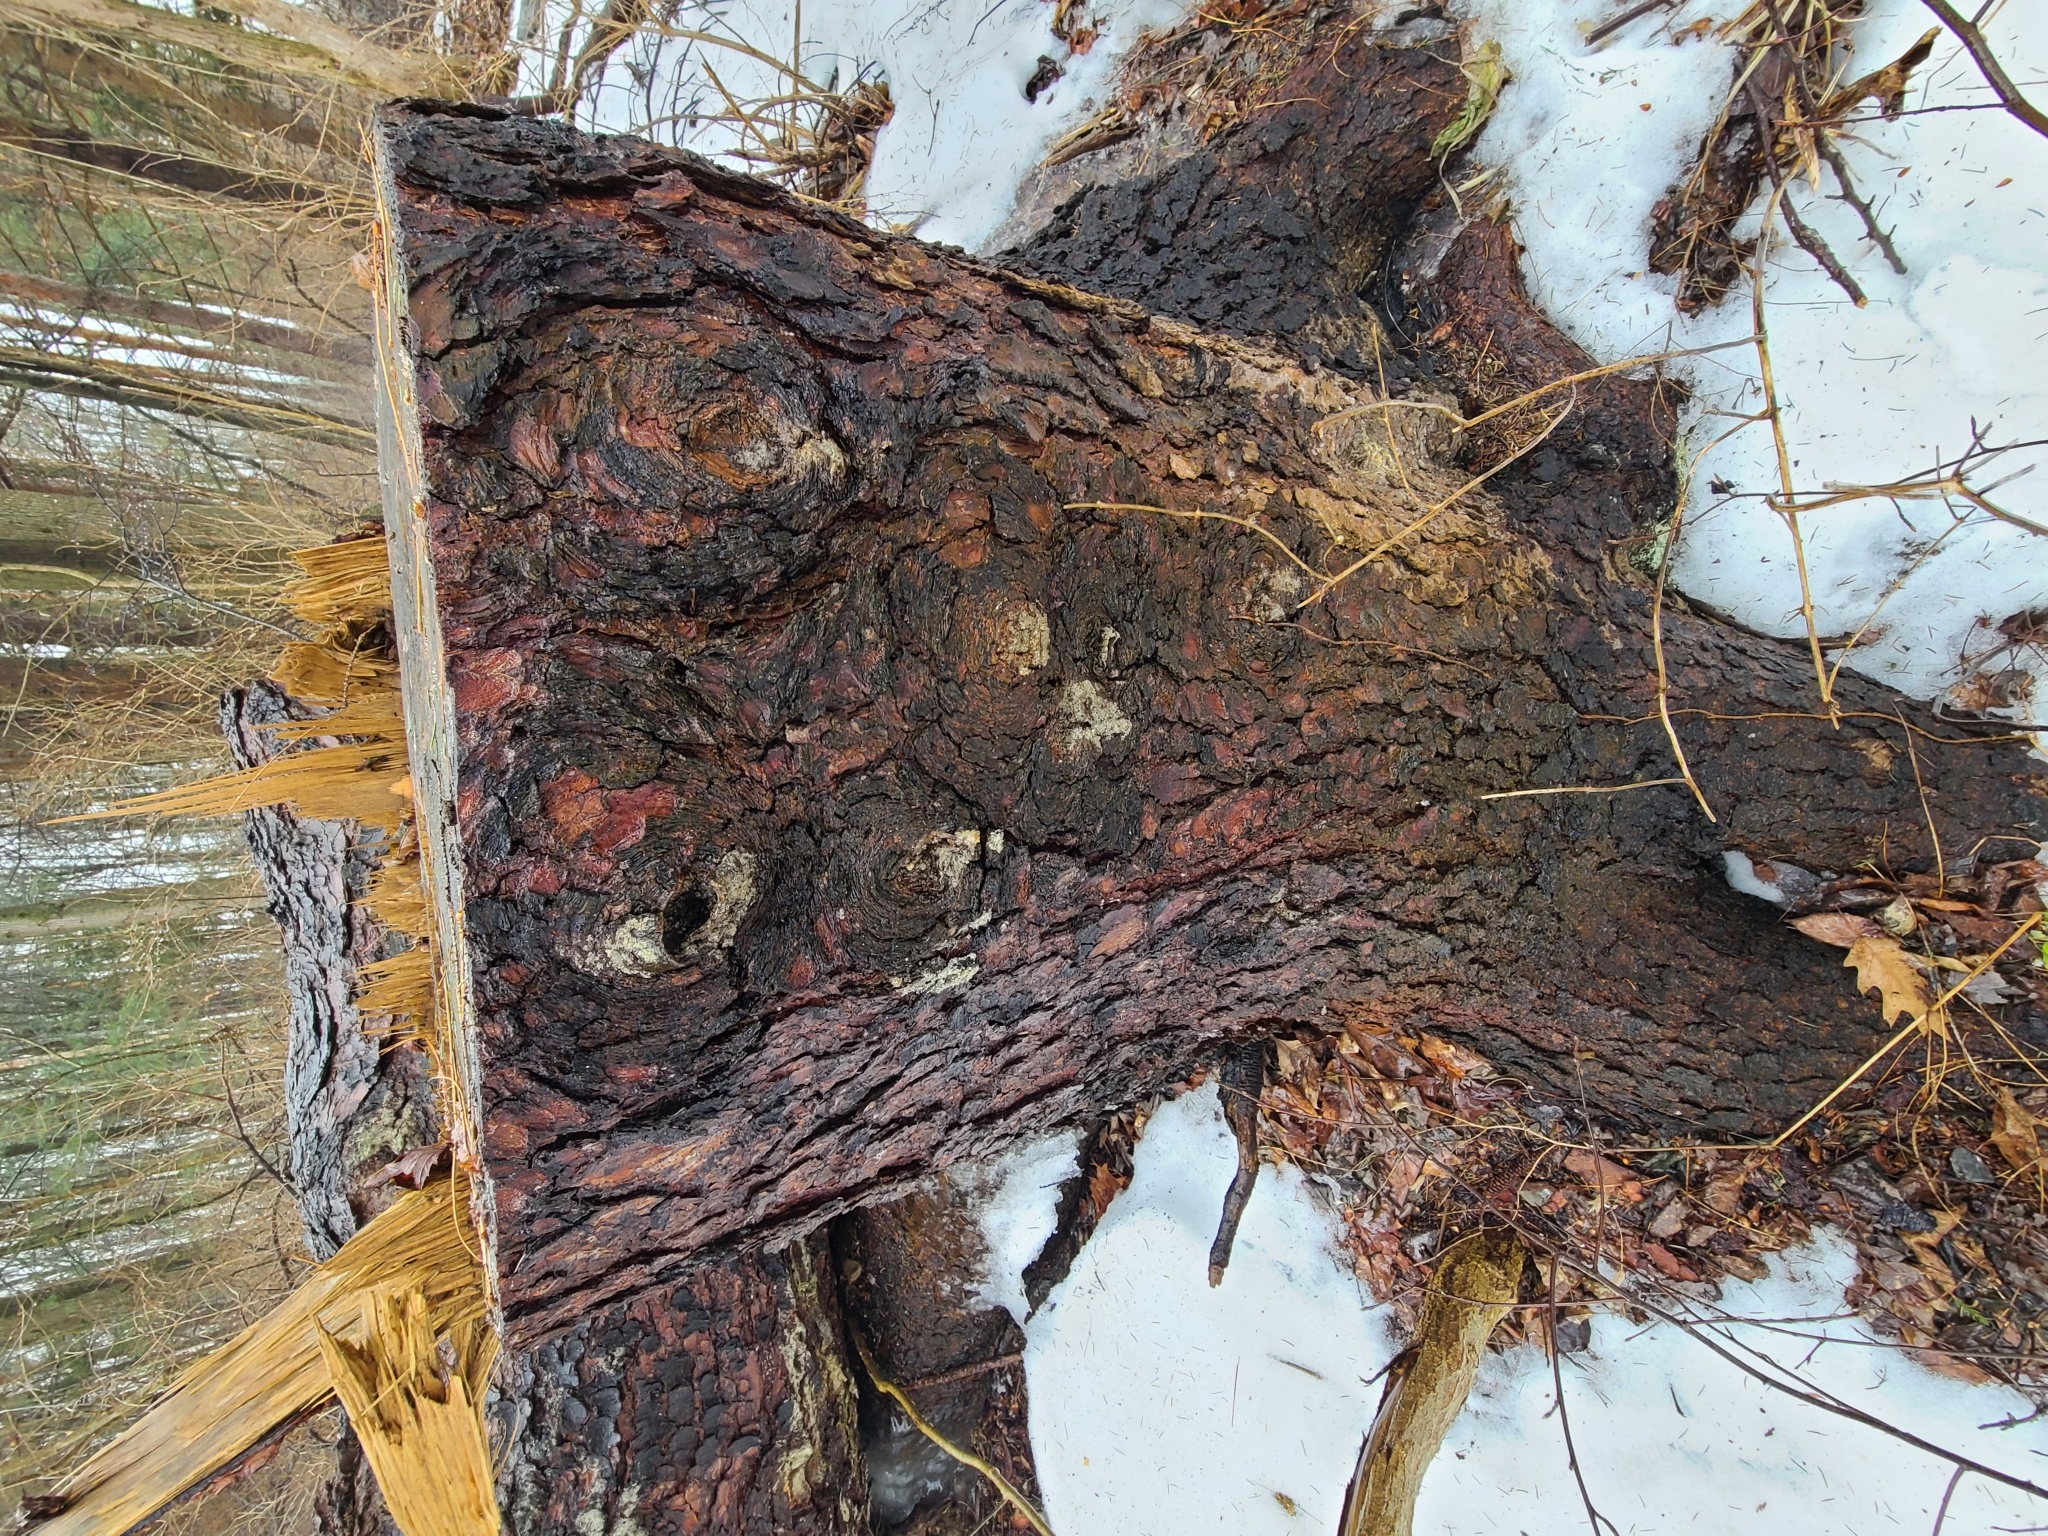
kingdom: Fungi
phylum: Ascomycota
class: Leotiomycetes
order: Helotiales
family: Gelatinodiscaceae
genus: Ascocoryne
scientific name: Ascocoryne sarcoides
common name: Purple jellydisc
